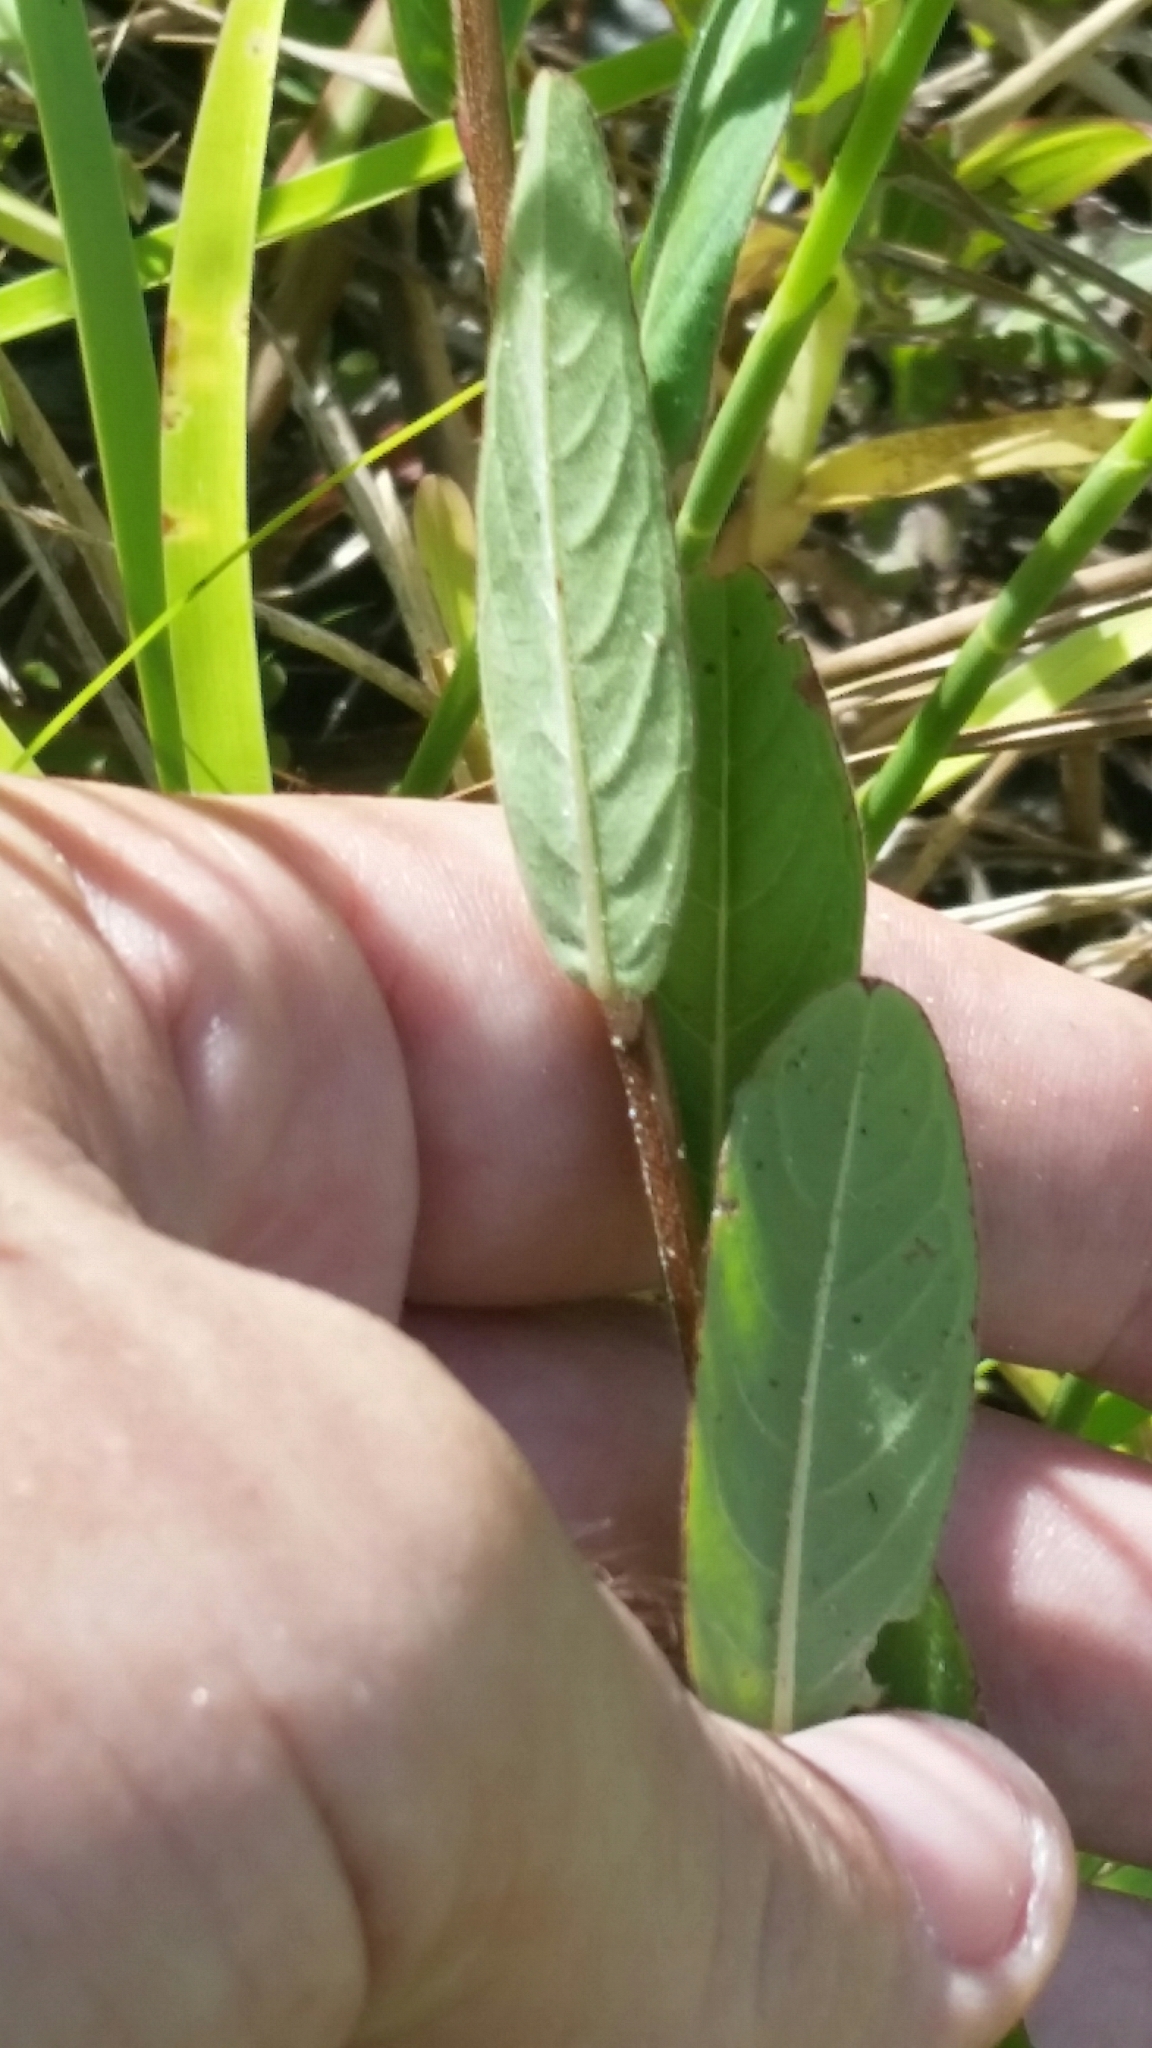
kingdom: Plantae
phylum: Tracheophyta
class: Magnoliopsida
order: Myrtales
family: Onagraceae
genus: Ludwigia
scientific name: Ludwigia maritima
